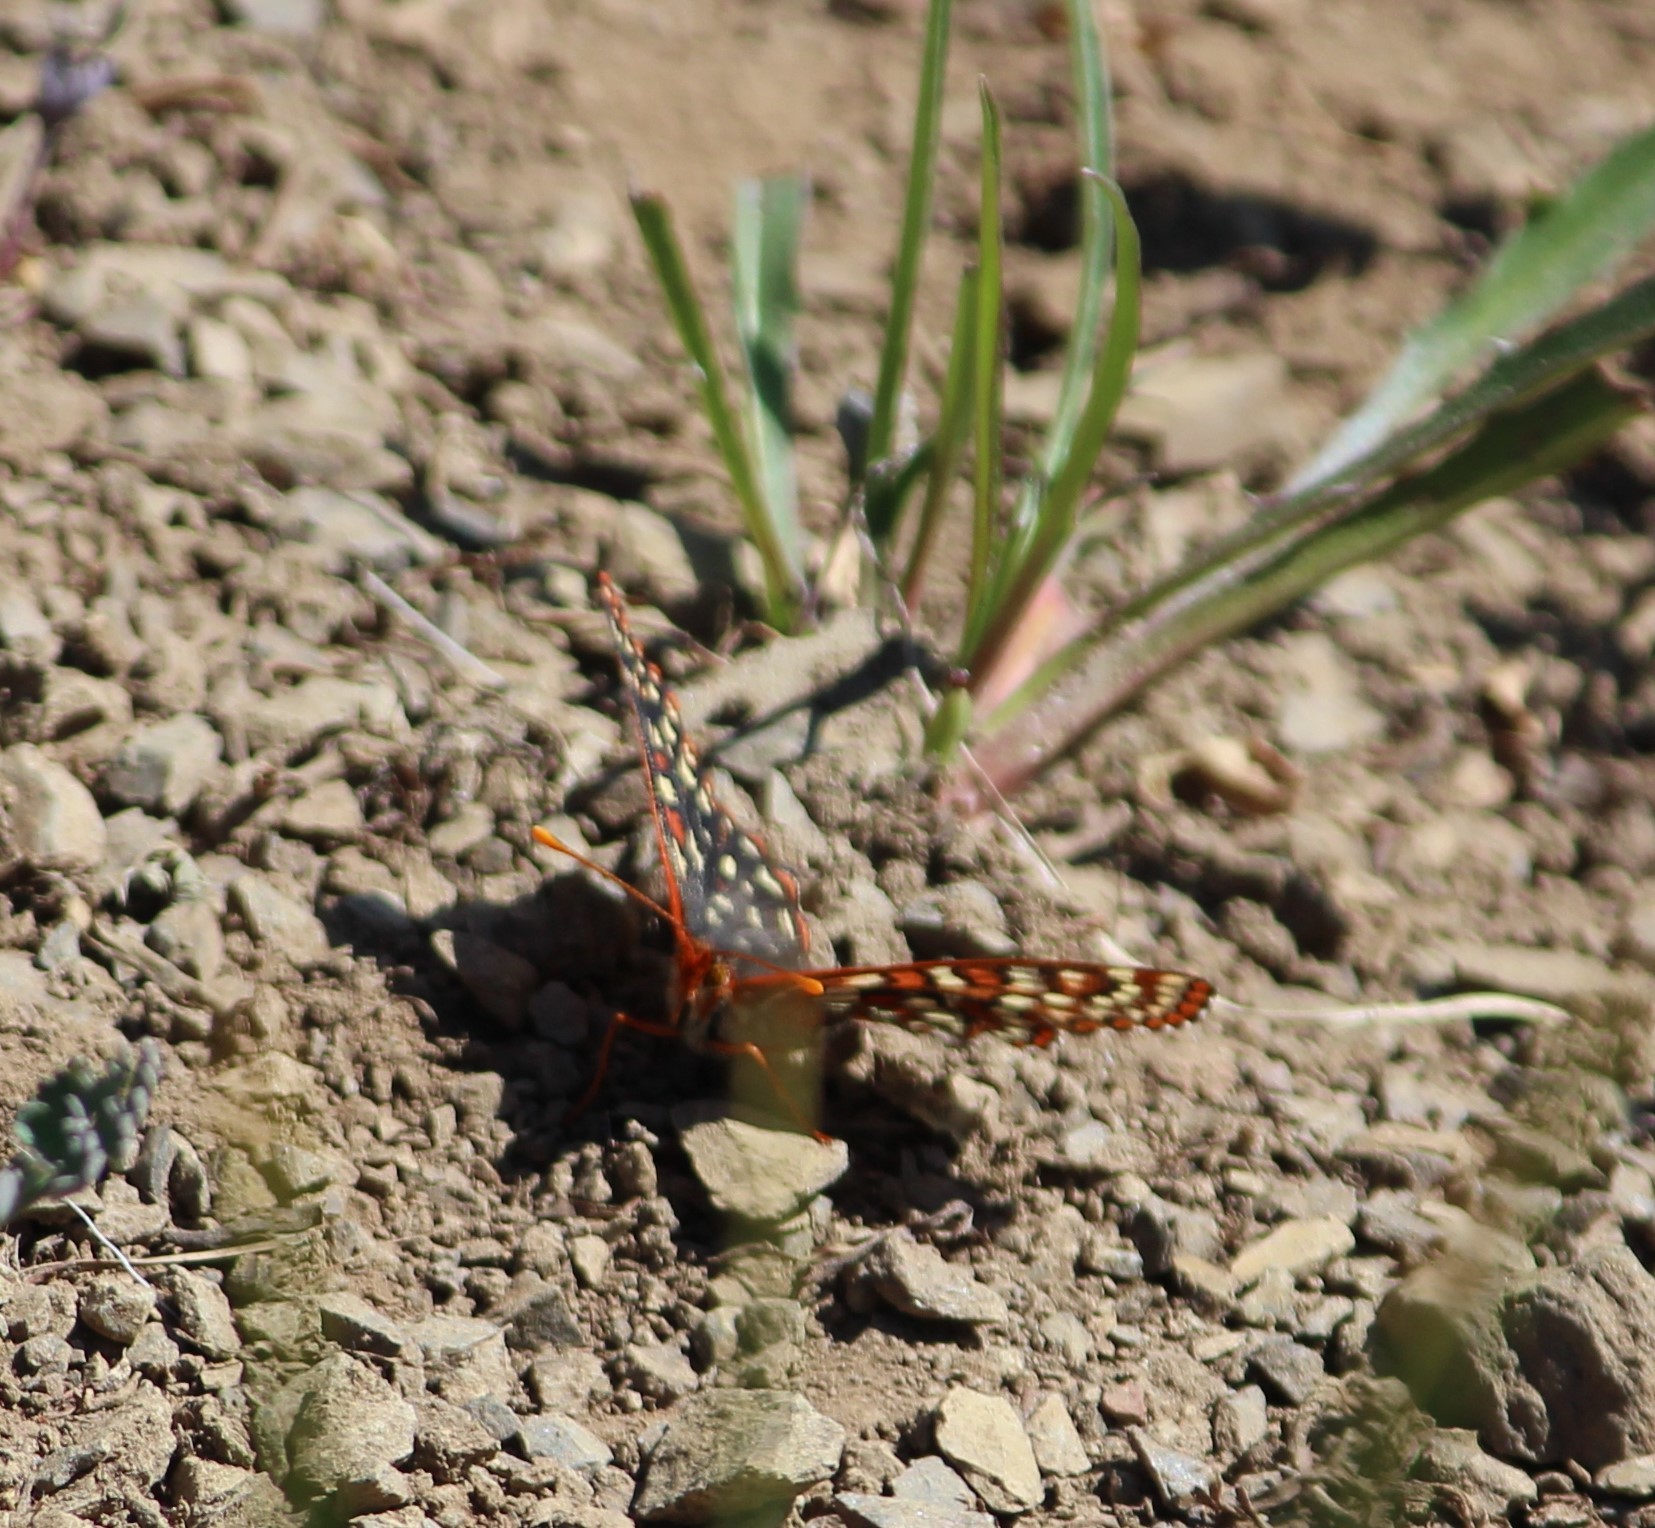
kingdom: Animalia
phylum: Arthropoda
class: Insecta
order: Lepidoptera
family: Nymphalidae
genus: Occidryas
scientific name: Occidryas colon
